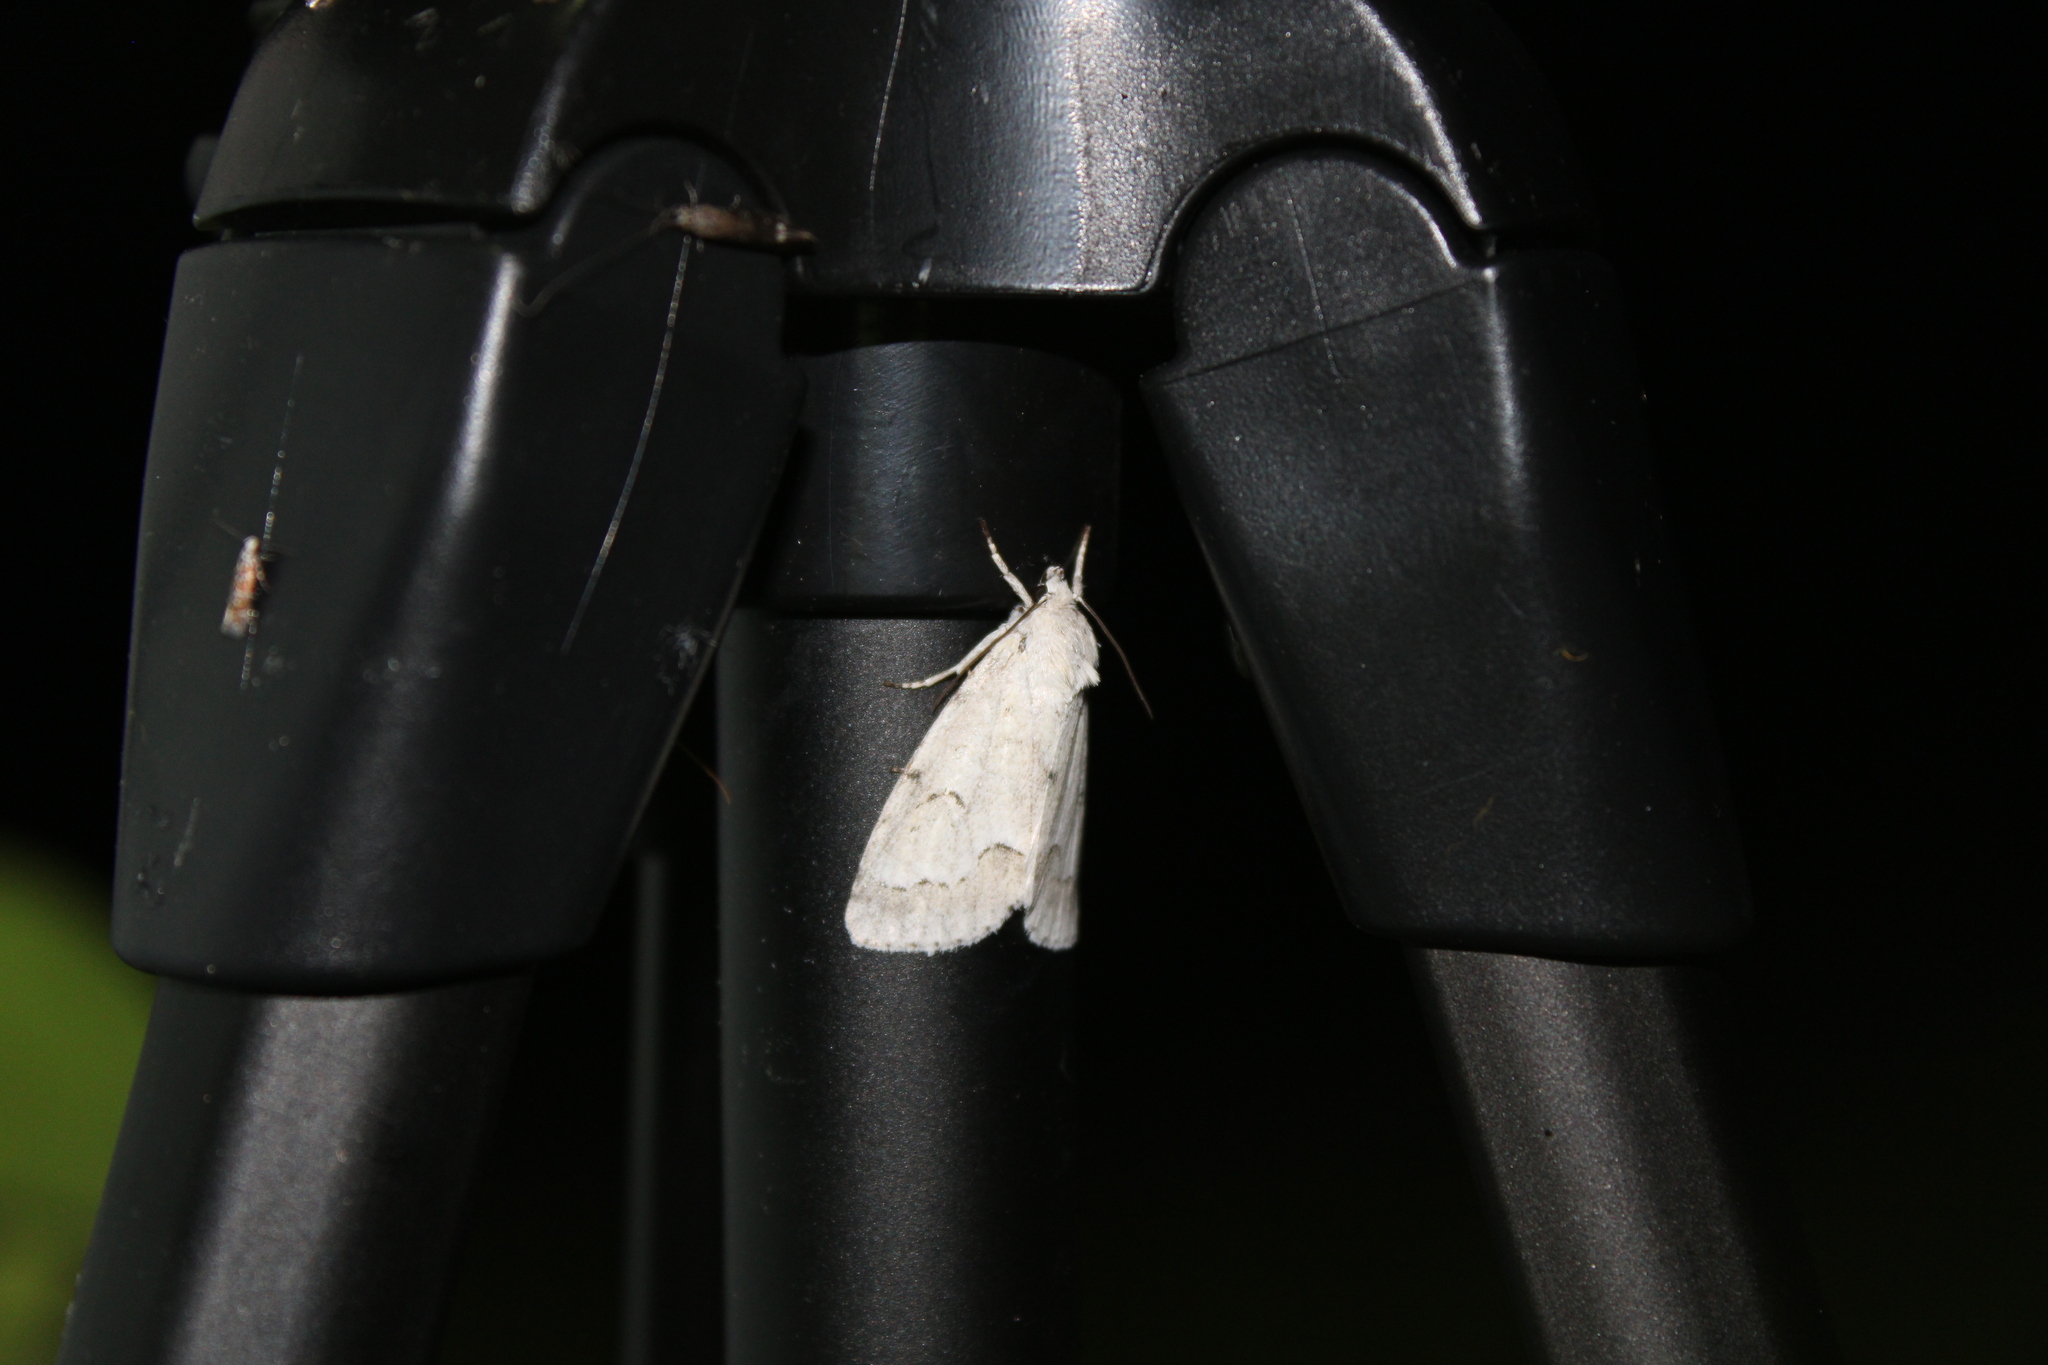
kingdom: Animalia
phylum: Arthropoda
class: Insecta
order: Lepidoptera
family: Noctuidae
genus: Acronicta
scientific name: Acronicta innotata
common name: Unmarked dagger
